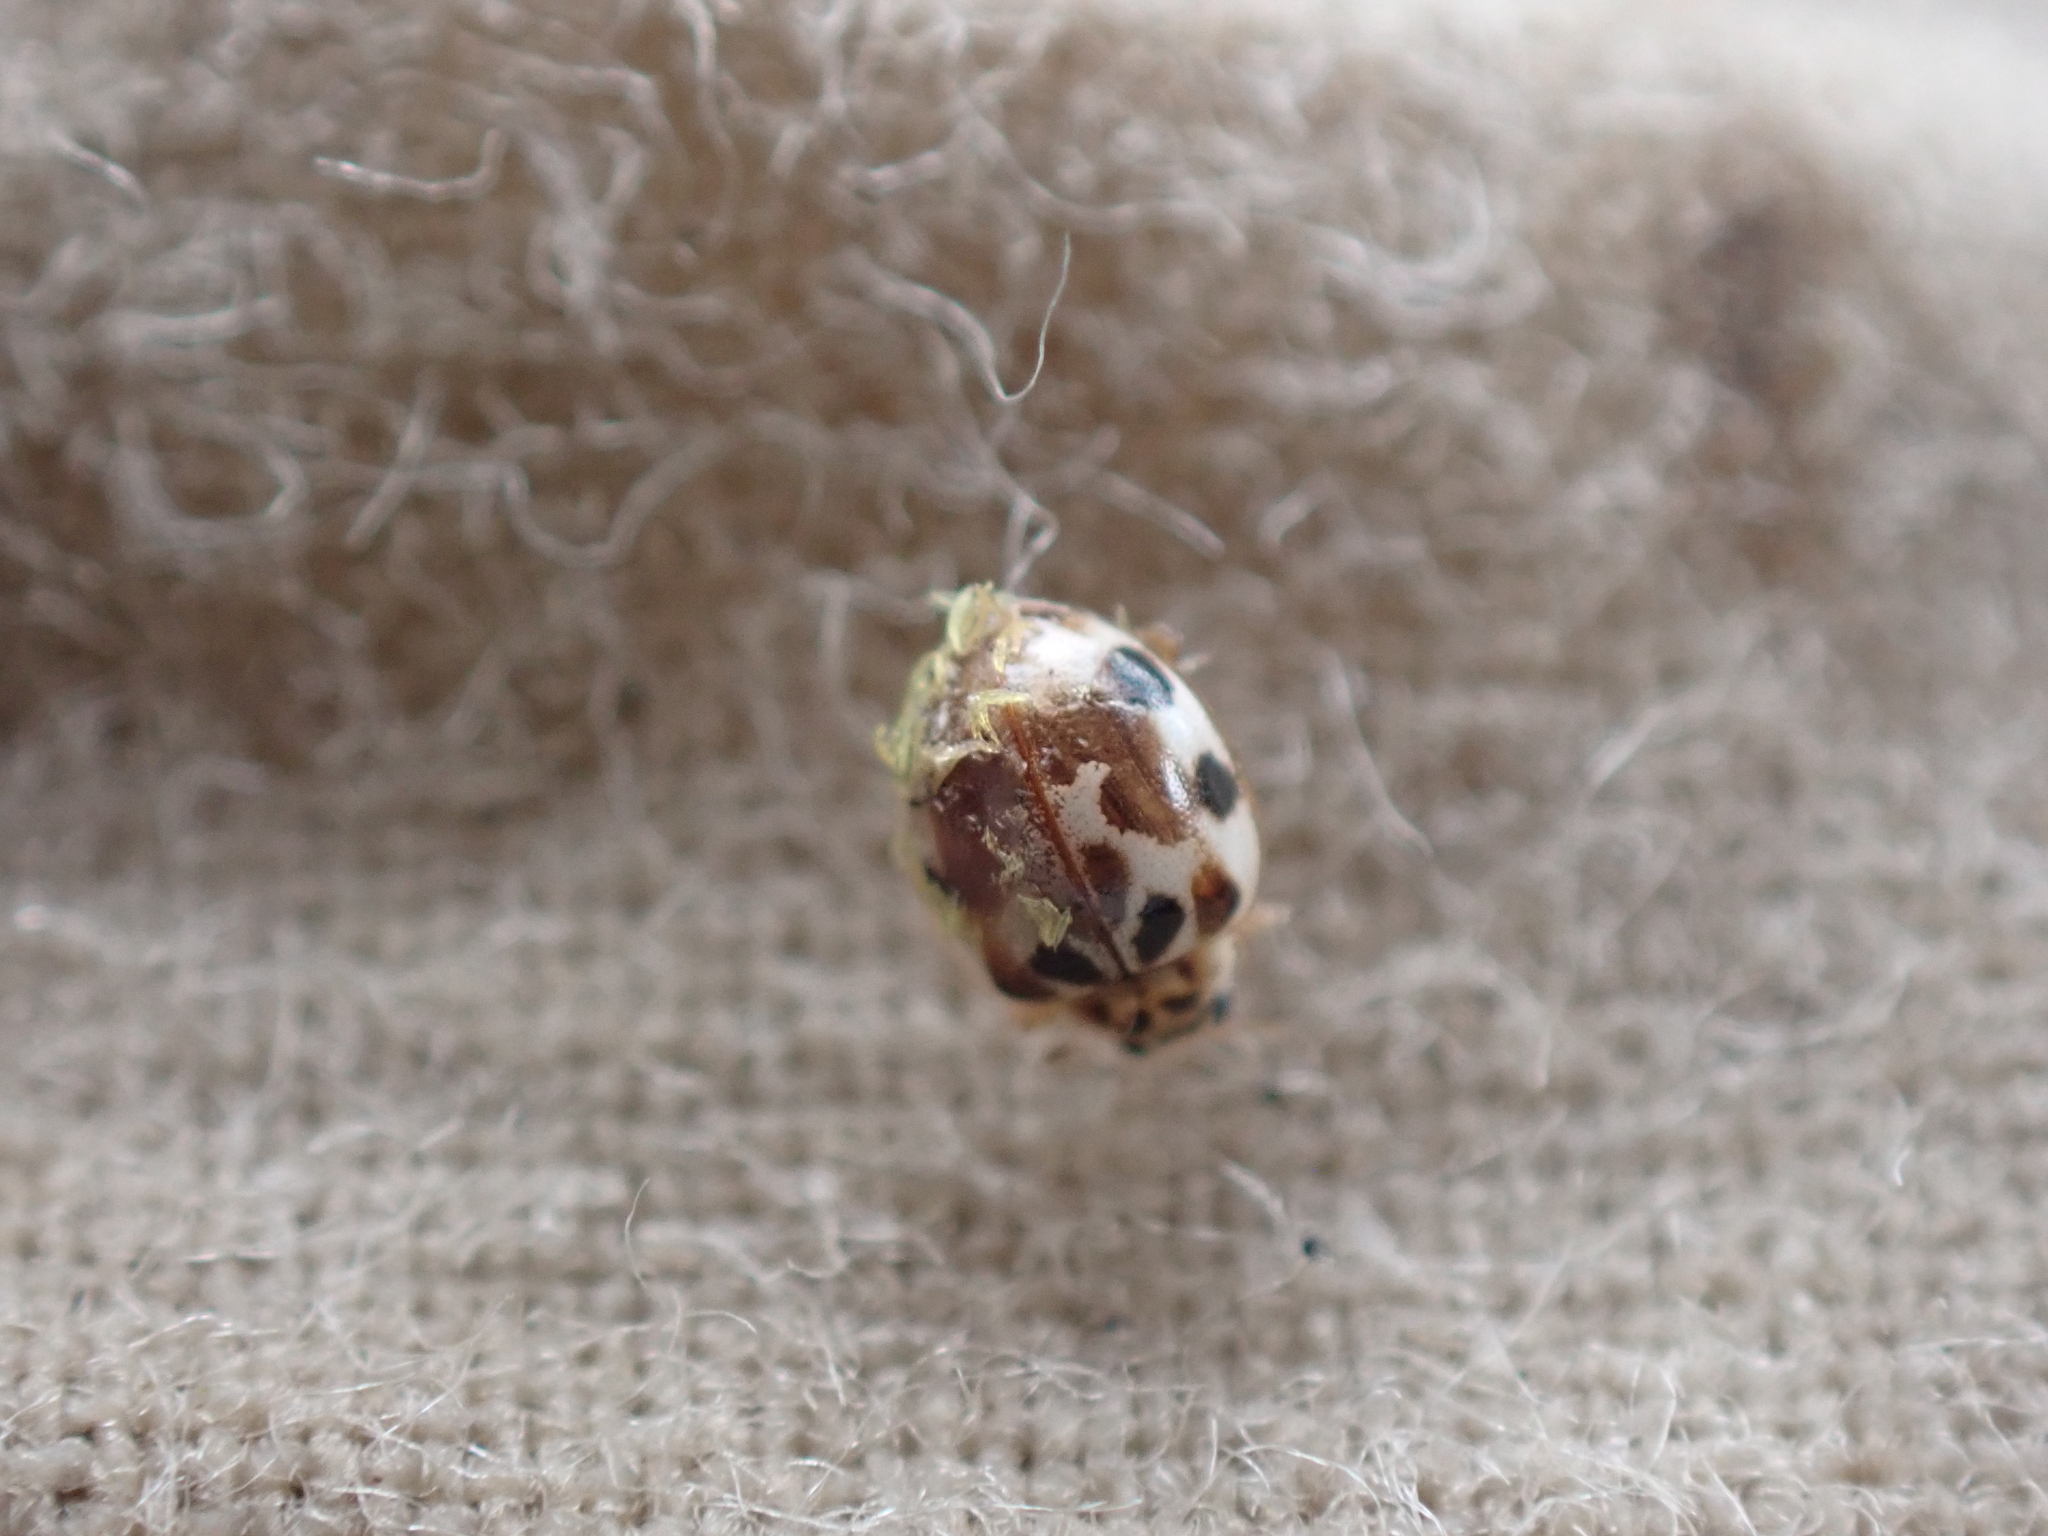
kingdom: Animalia
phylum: Arthropoda
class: Insecta
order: Coleoptera
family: Coccinellidae
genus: Psyllobora
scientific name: Psyllobora vigintimaculata
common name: Ladybird beetle
